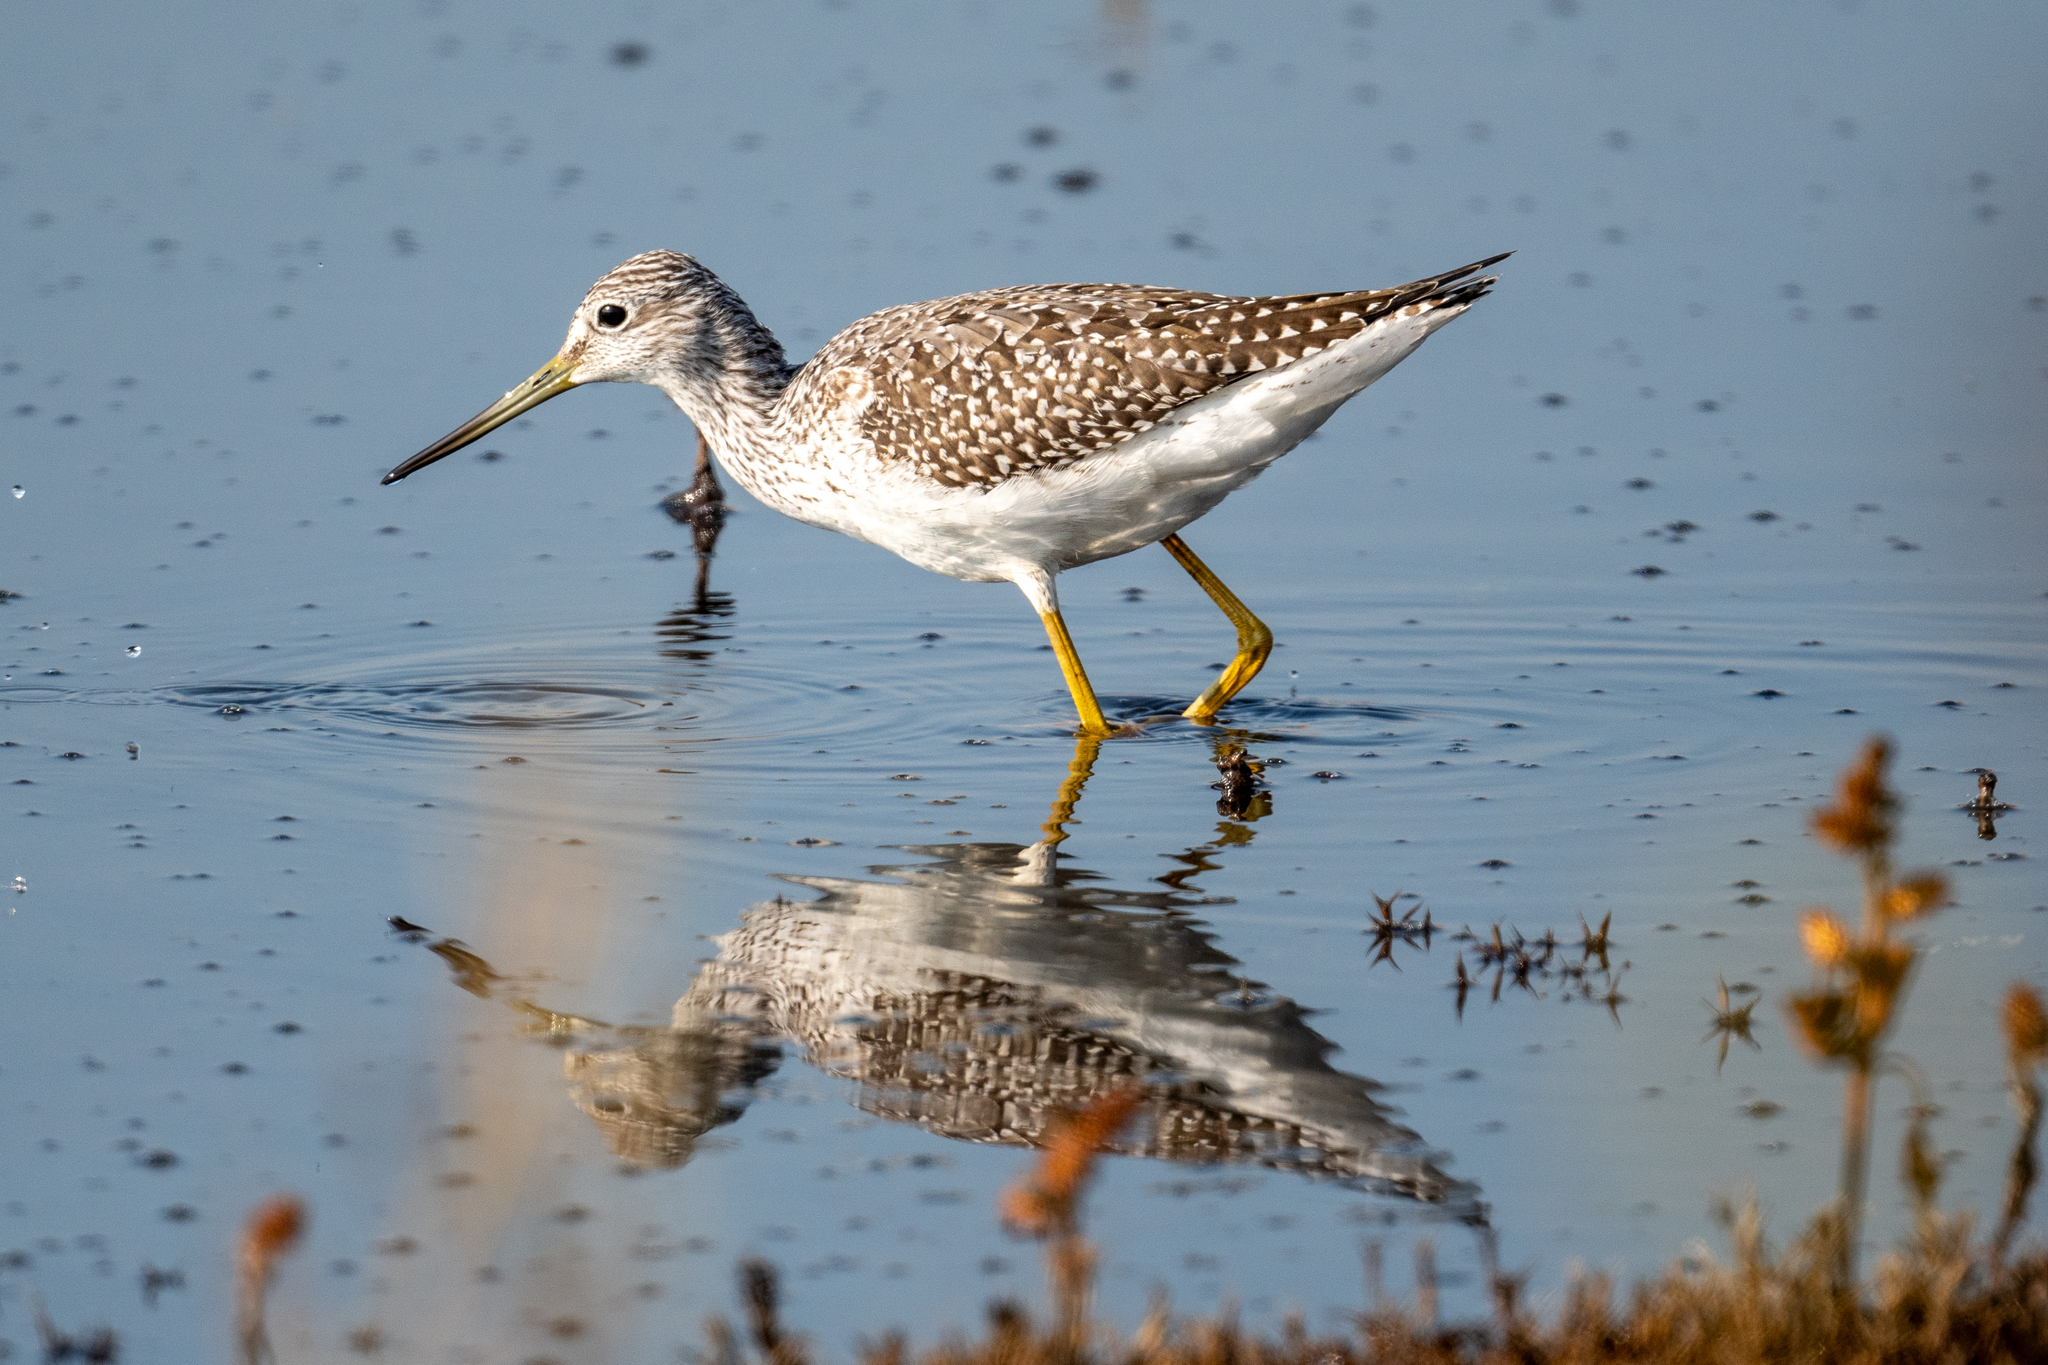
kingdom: Animalia
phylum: Chordata
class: Aves
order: Charadriiformes
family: Scolopacidae
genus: Tringa
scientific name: Tringa melanoleuca
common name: Greater yellowlegs
